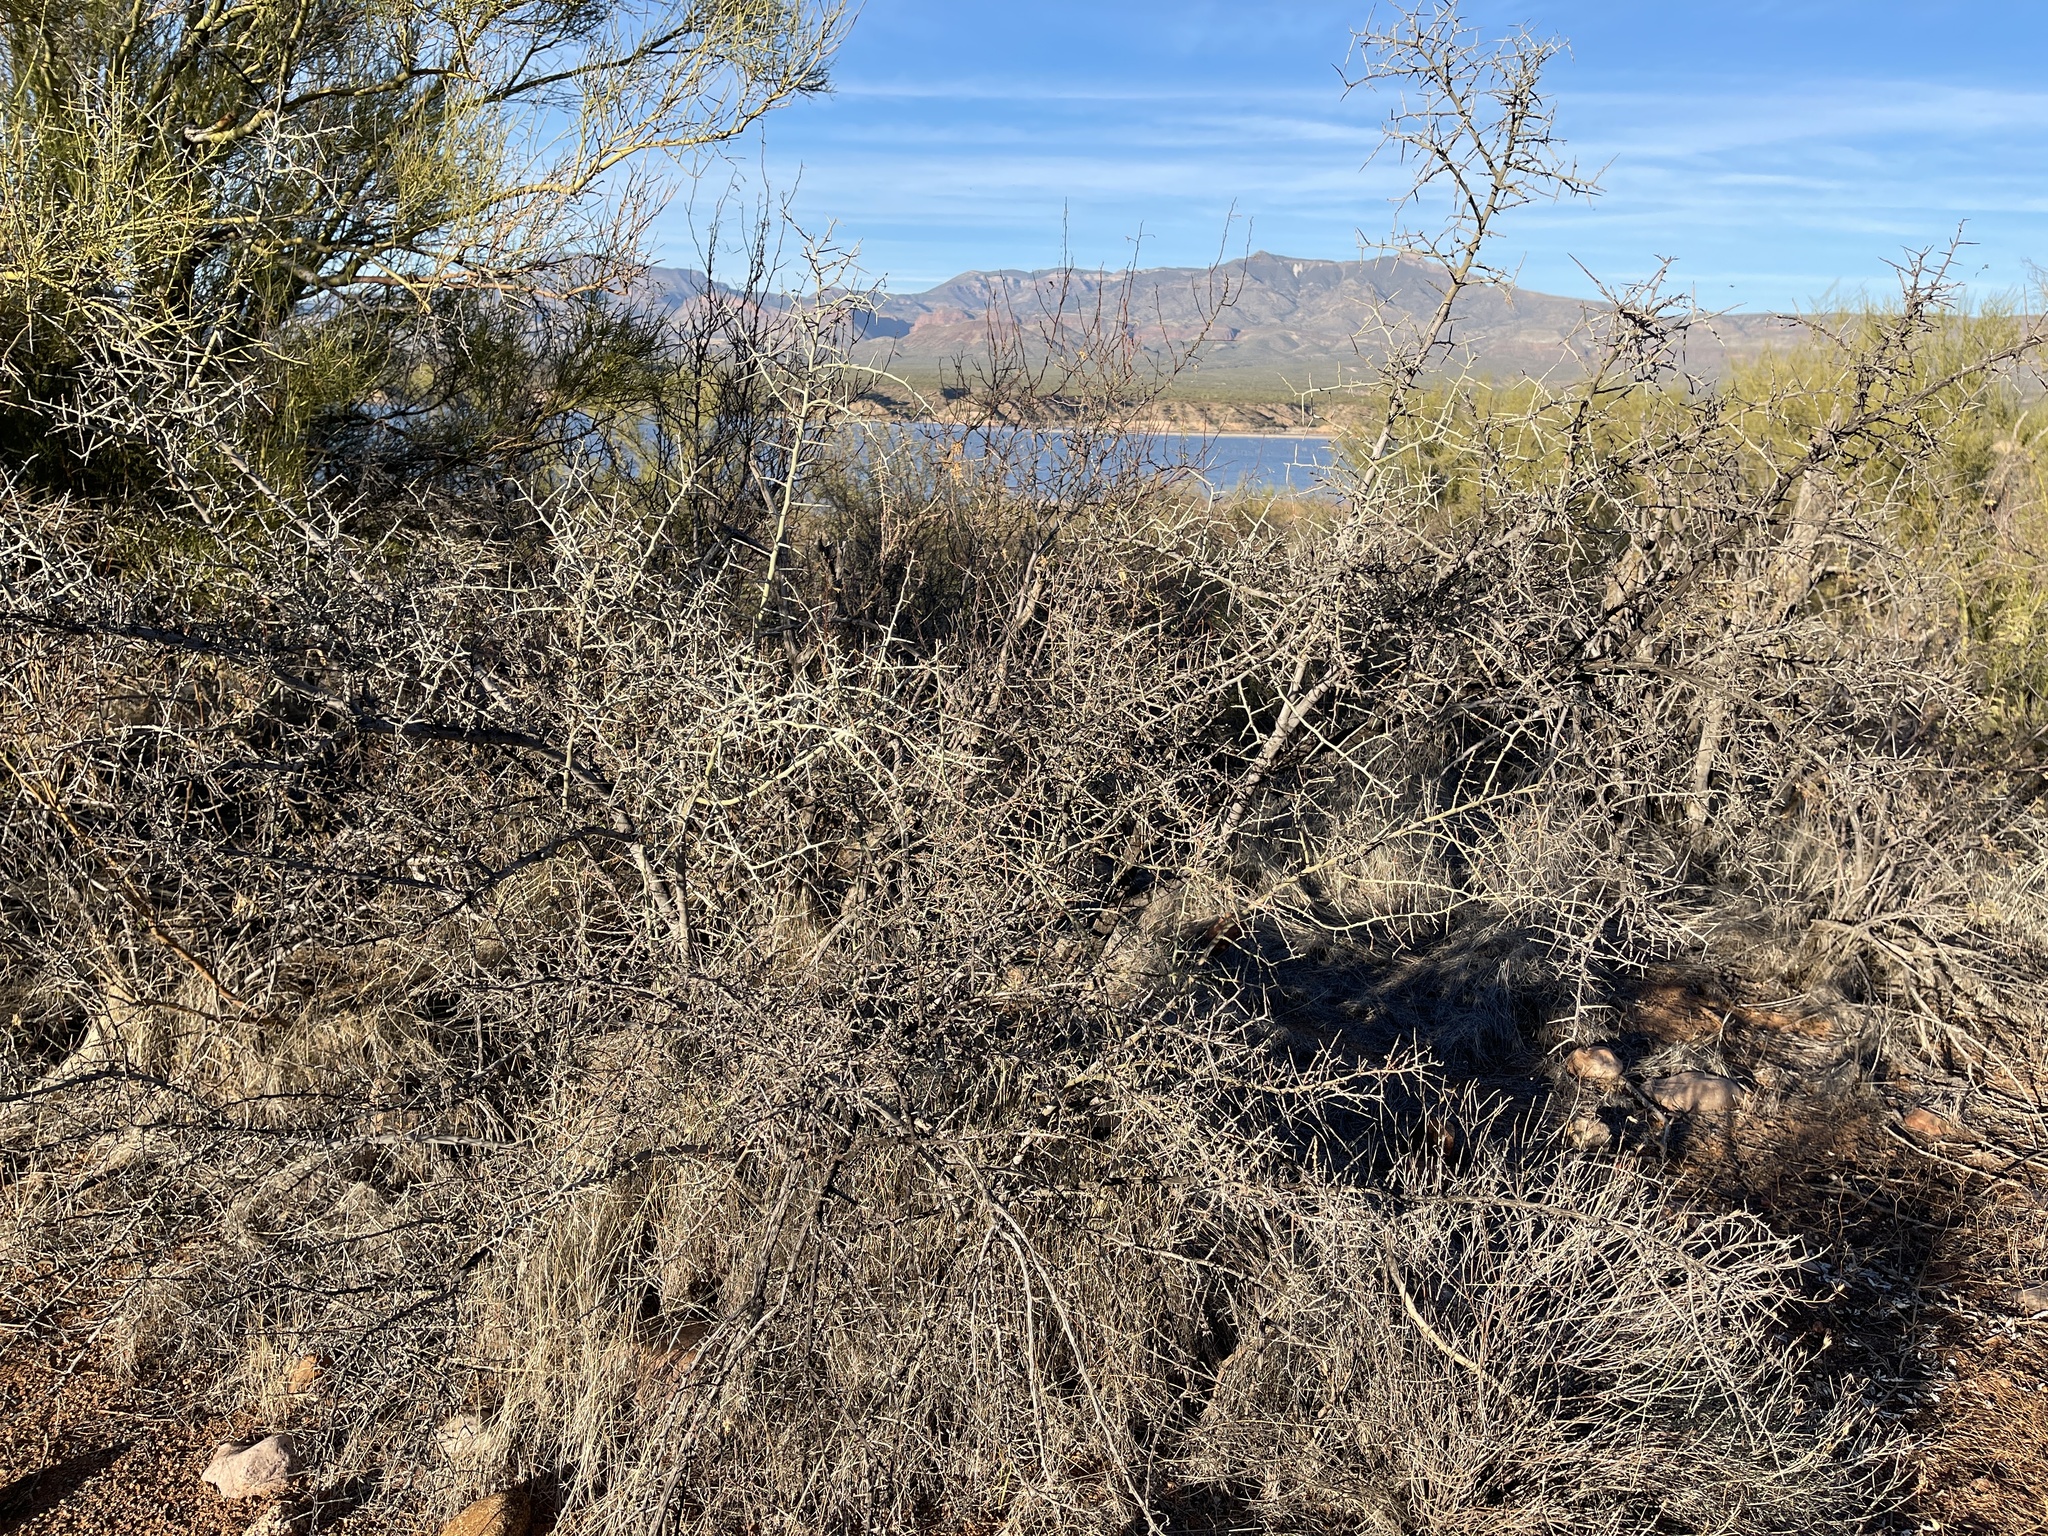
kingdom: Plantae
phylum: Tracheophyta
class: Magnoliopsida
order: Rosales
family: Rhamnaceae
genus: Sarcomphalus
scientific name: Sarcomphalus obtusifolius
